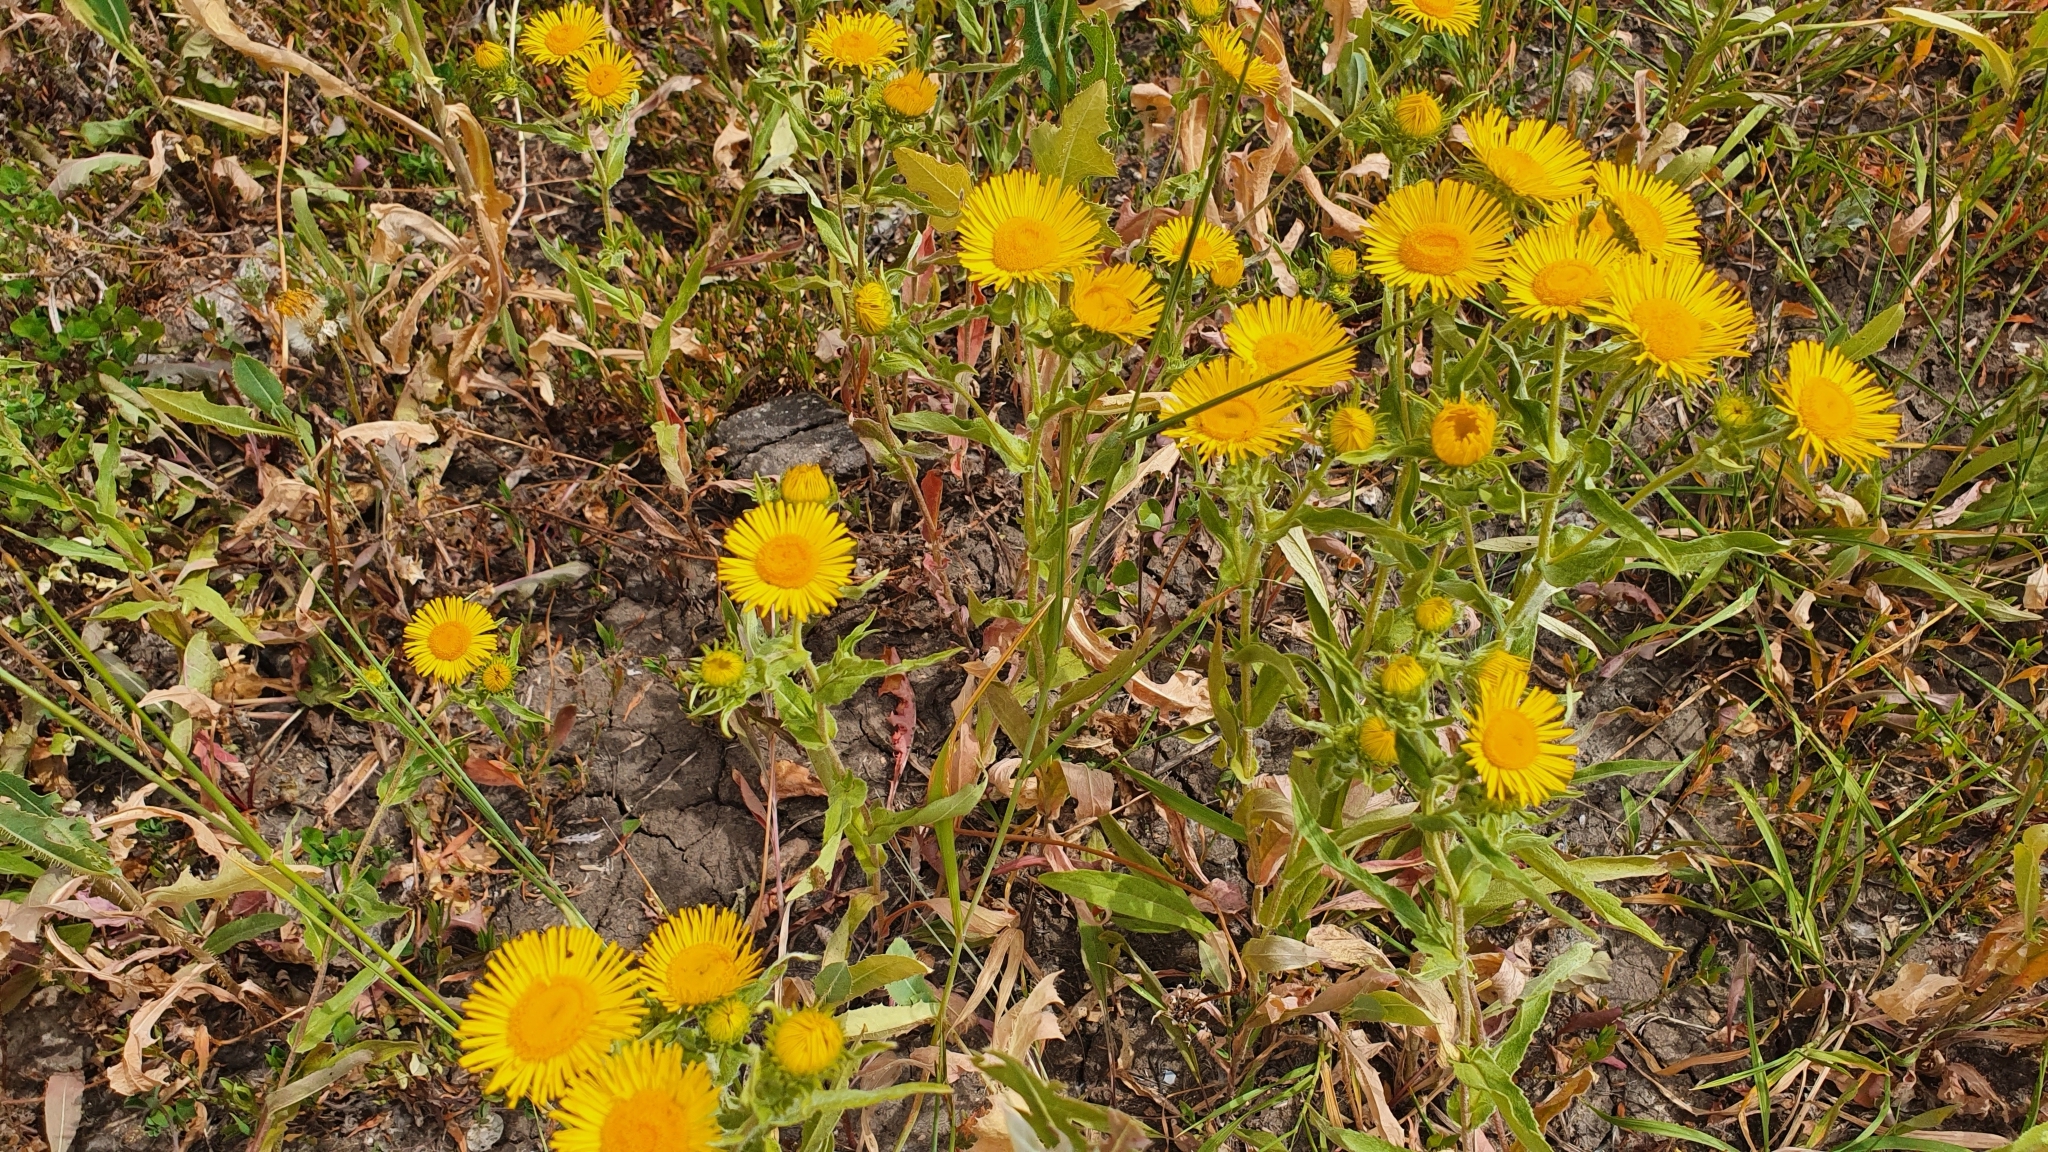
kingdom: Plantae
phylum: Tracheophyta
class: Magnoliopsida
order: Asterales
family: Asteraceae
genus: Pentanema
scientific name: Pentanema britannicum
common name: British elecampane
